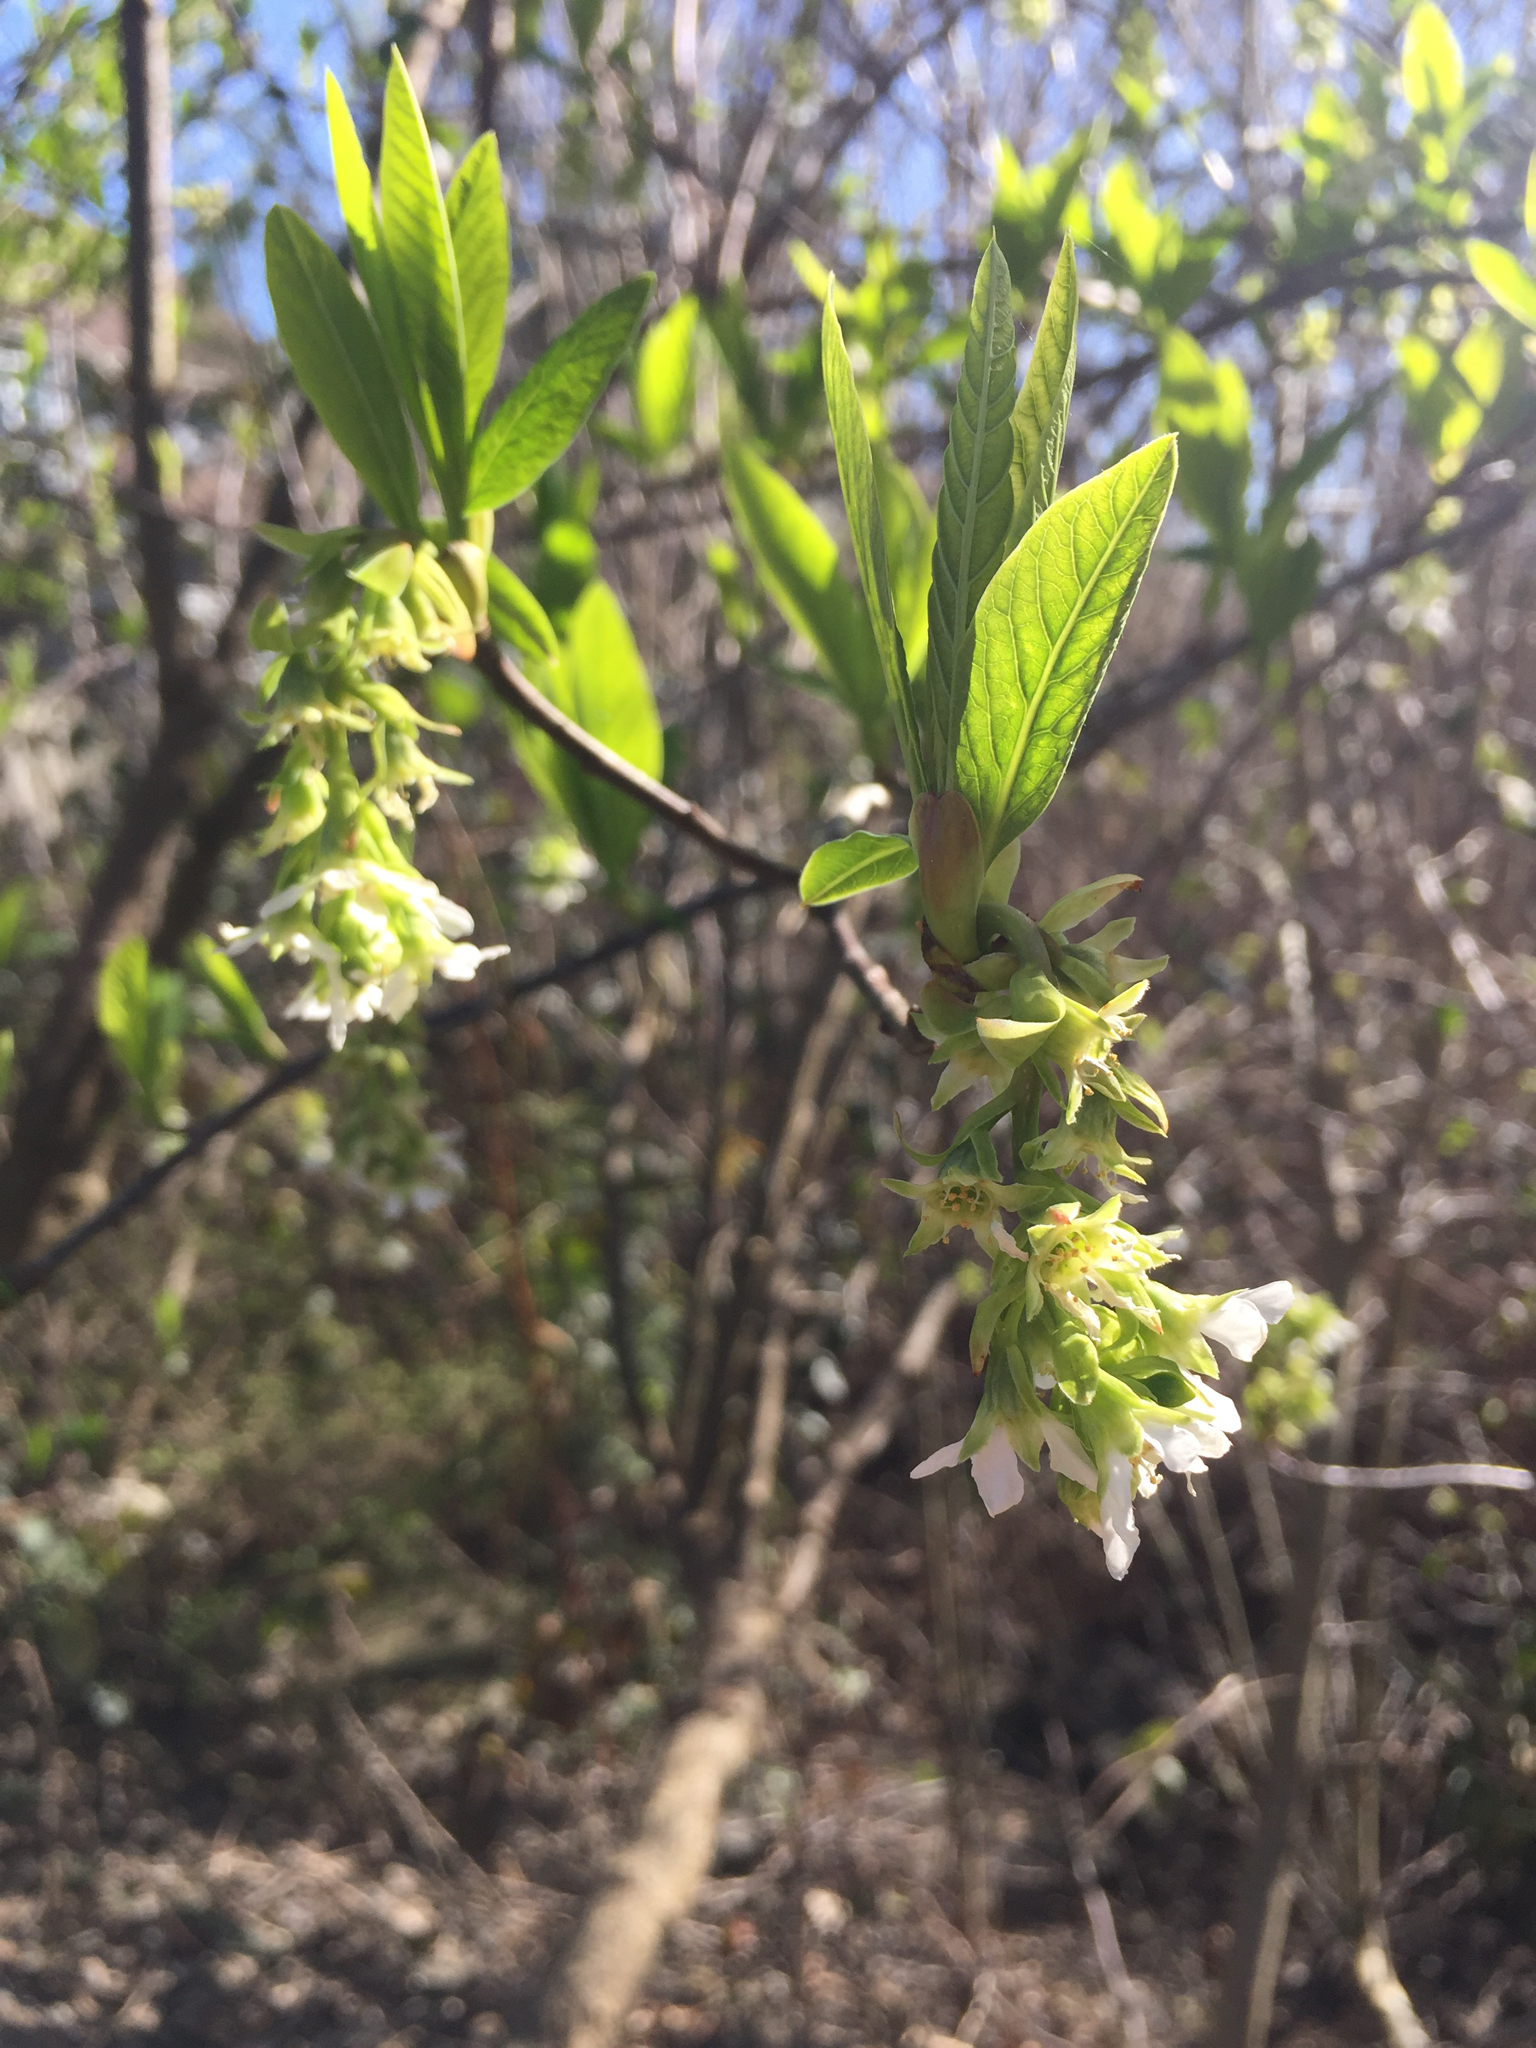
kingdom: Plantae
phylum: Tracheophyta
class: Magnoliopsida
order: Rosales
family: Rosaceae
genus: Oemleria
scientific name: Oemleria cerasiformis
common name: Osoberry
